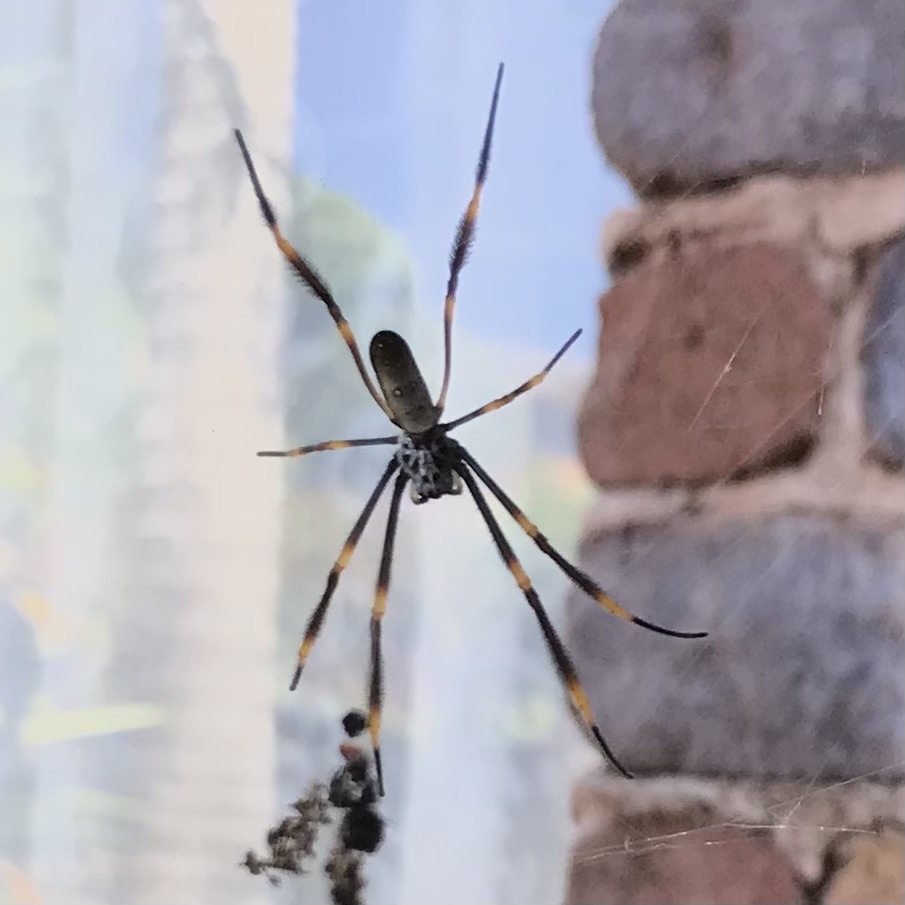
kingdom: Animalia
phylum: Arthropoda
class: Arachnida
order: Araneae
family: Araneidae
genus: Trichonephila
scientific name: Trichonephila plumipes
